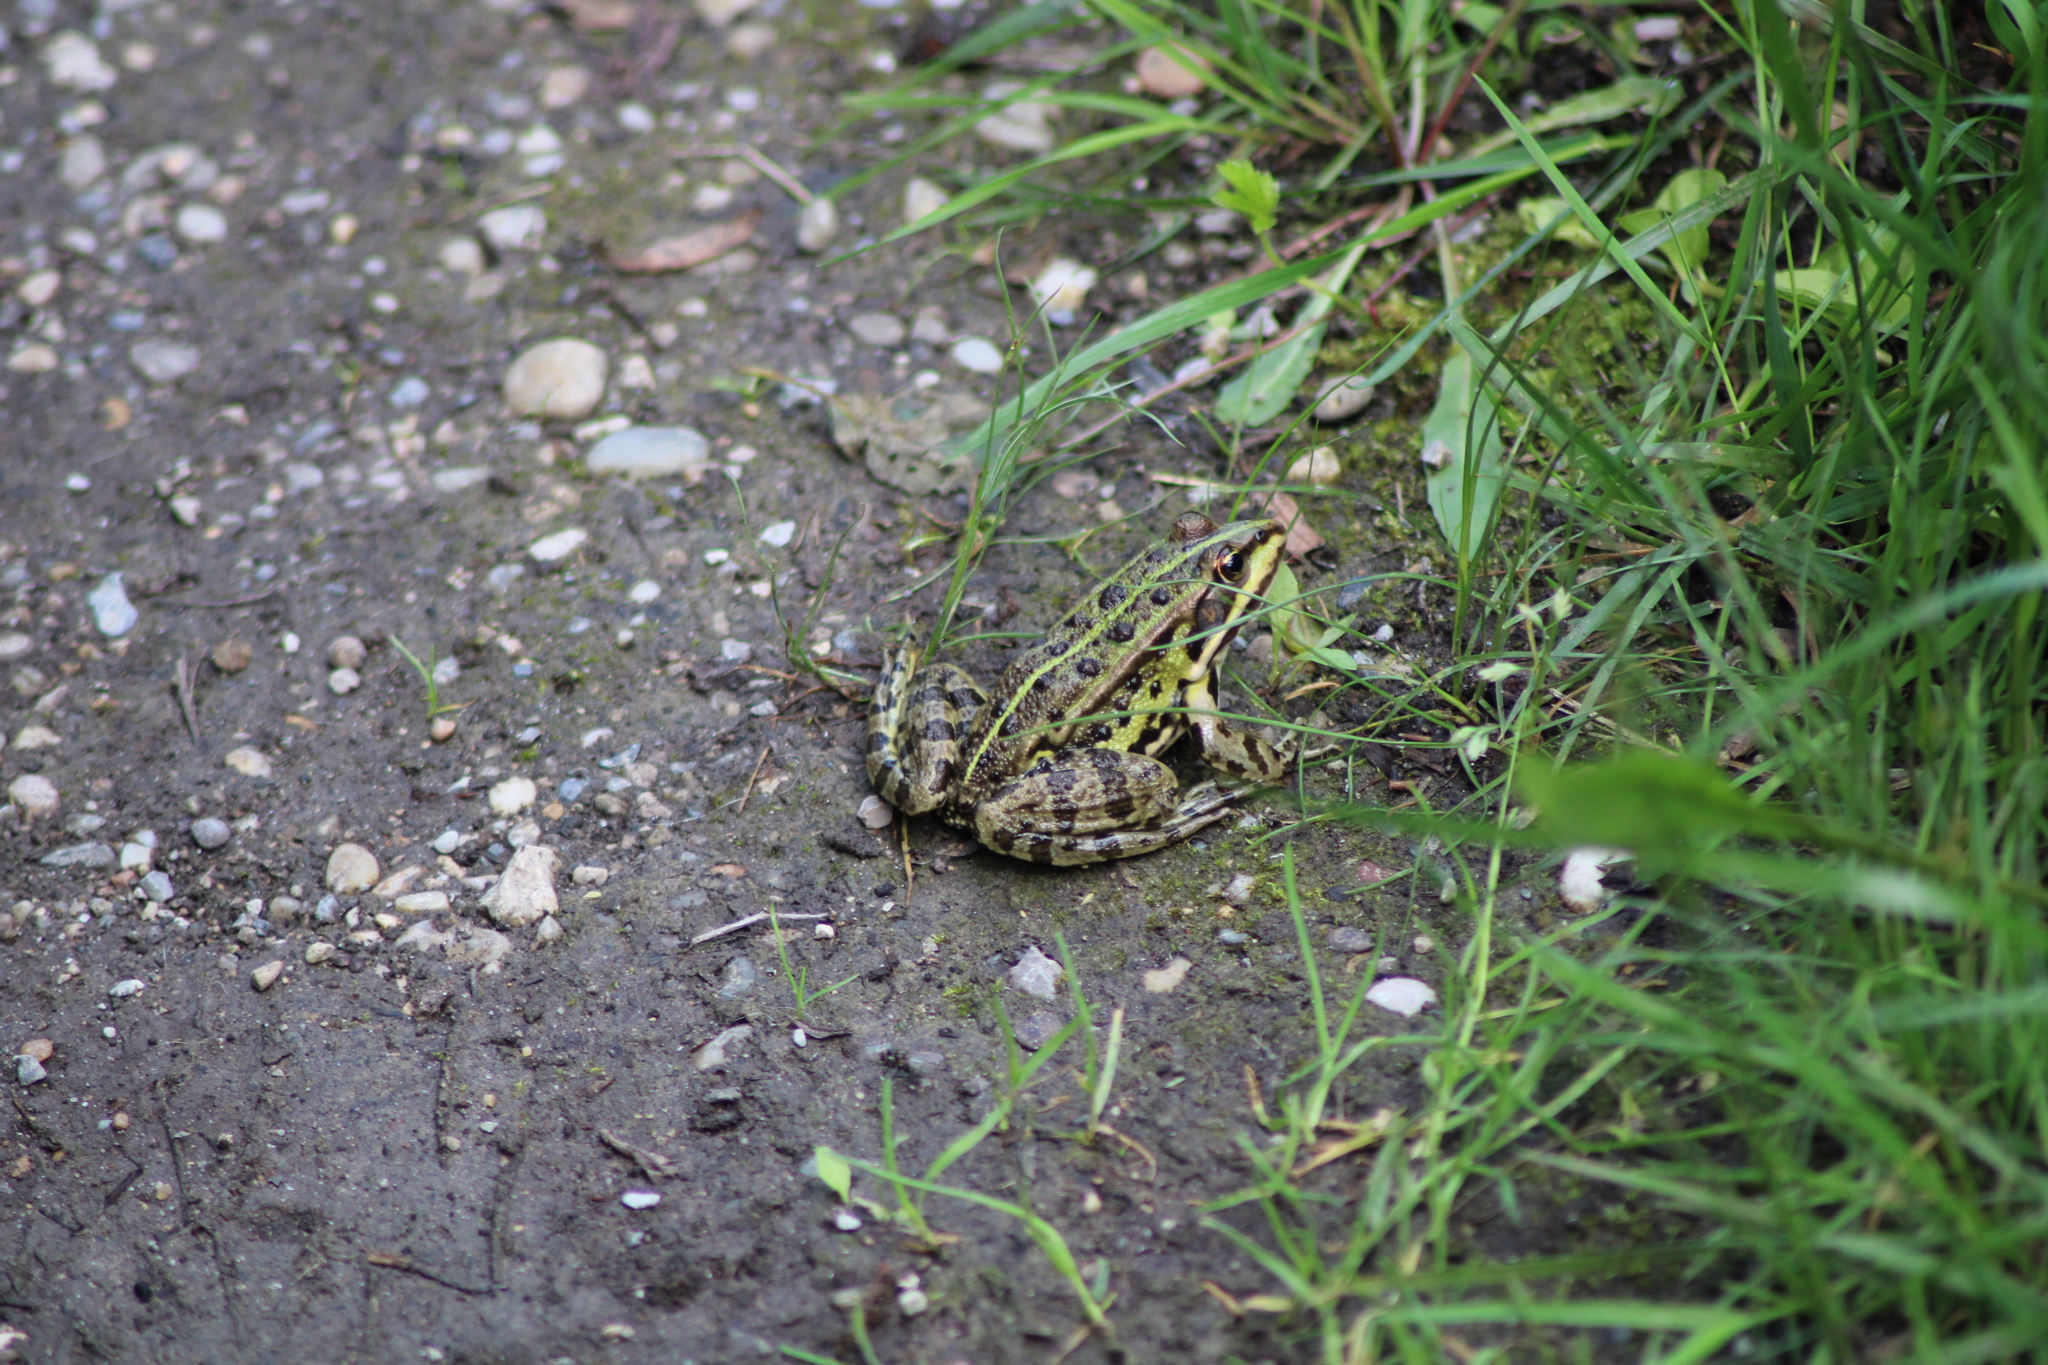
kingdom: Animalia
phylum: Chordata
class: Amphibia
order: Anura
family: Ranidae
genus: Pelophylax
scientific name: Pelophylax
